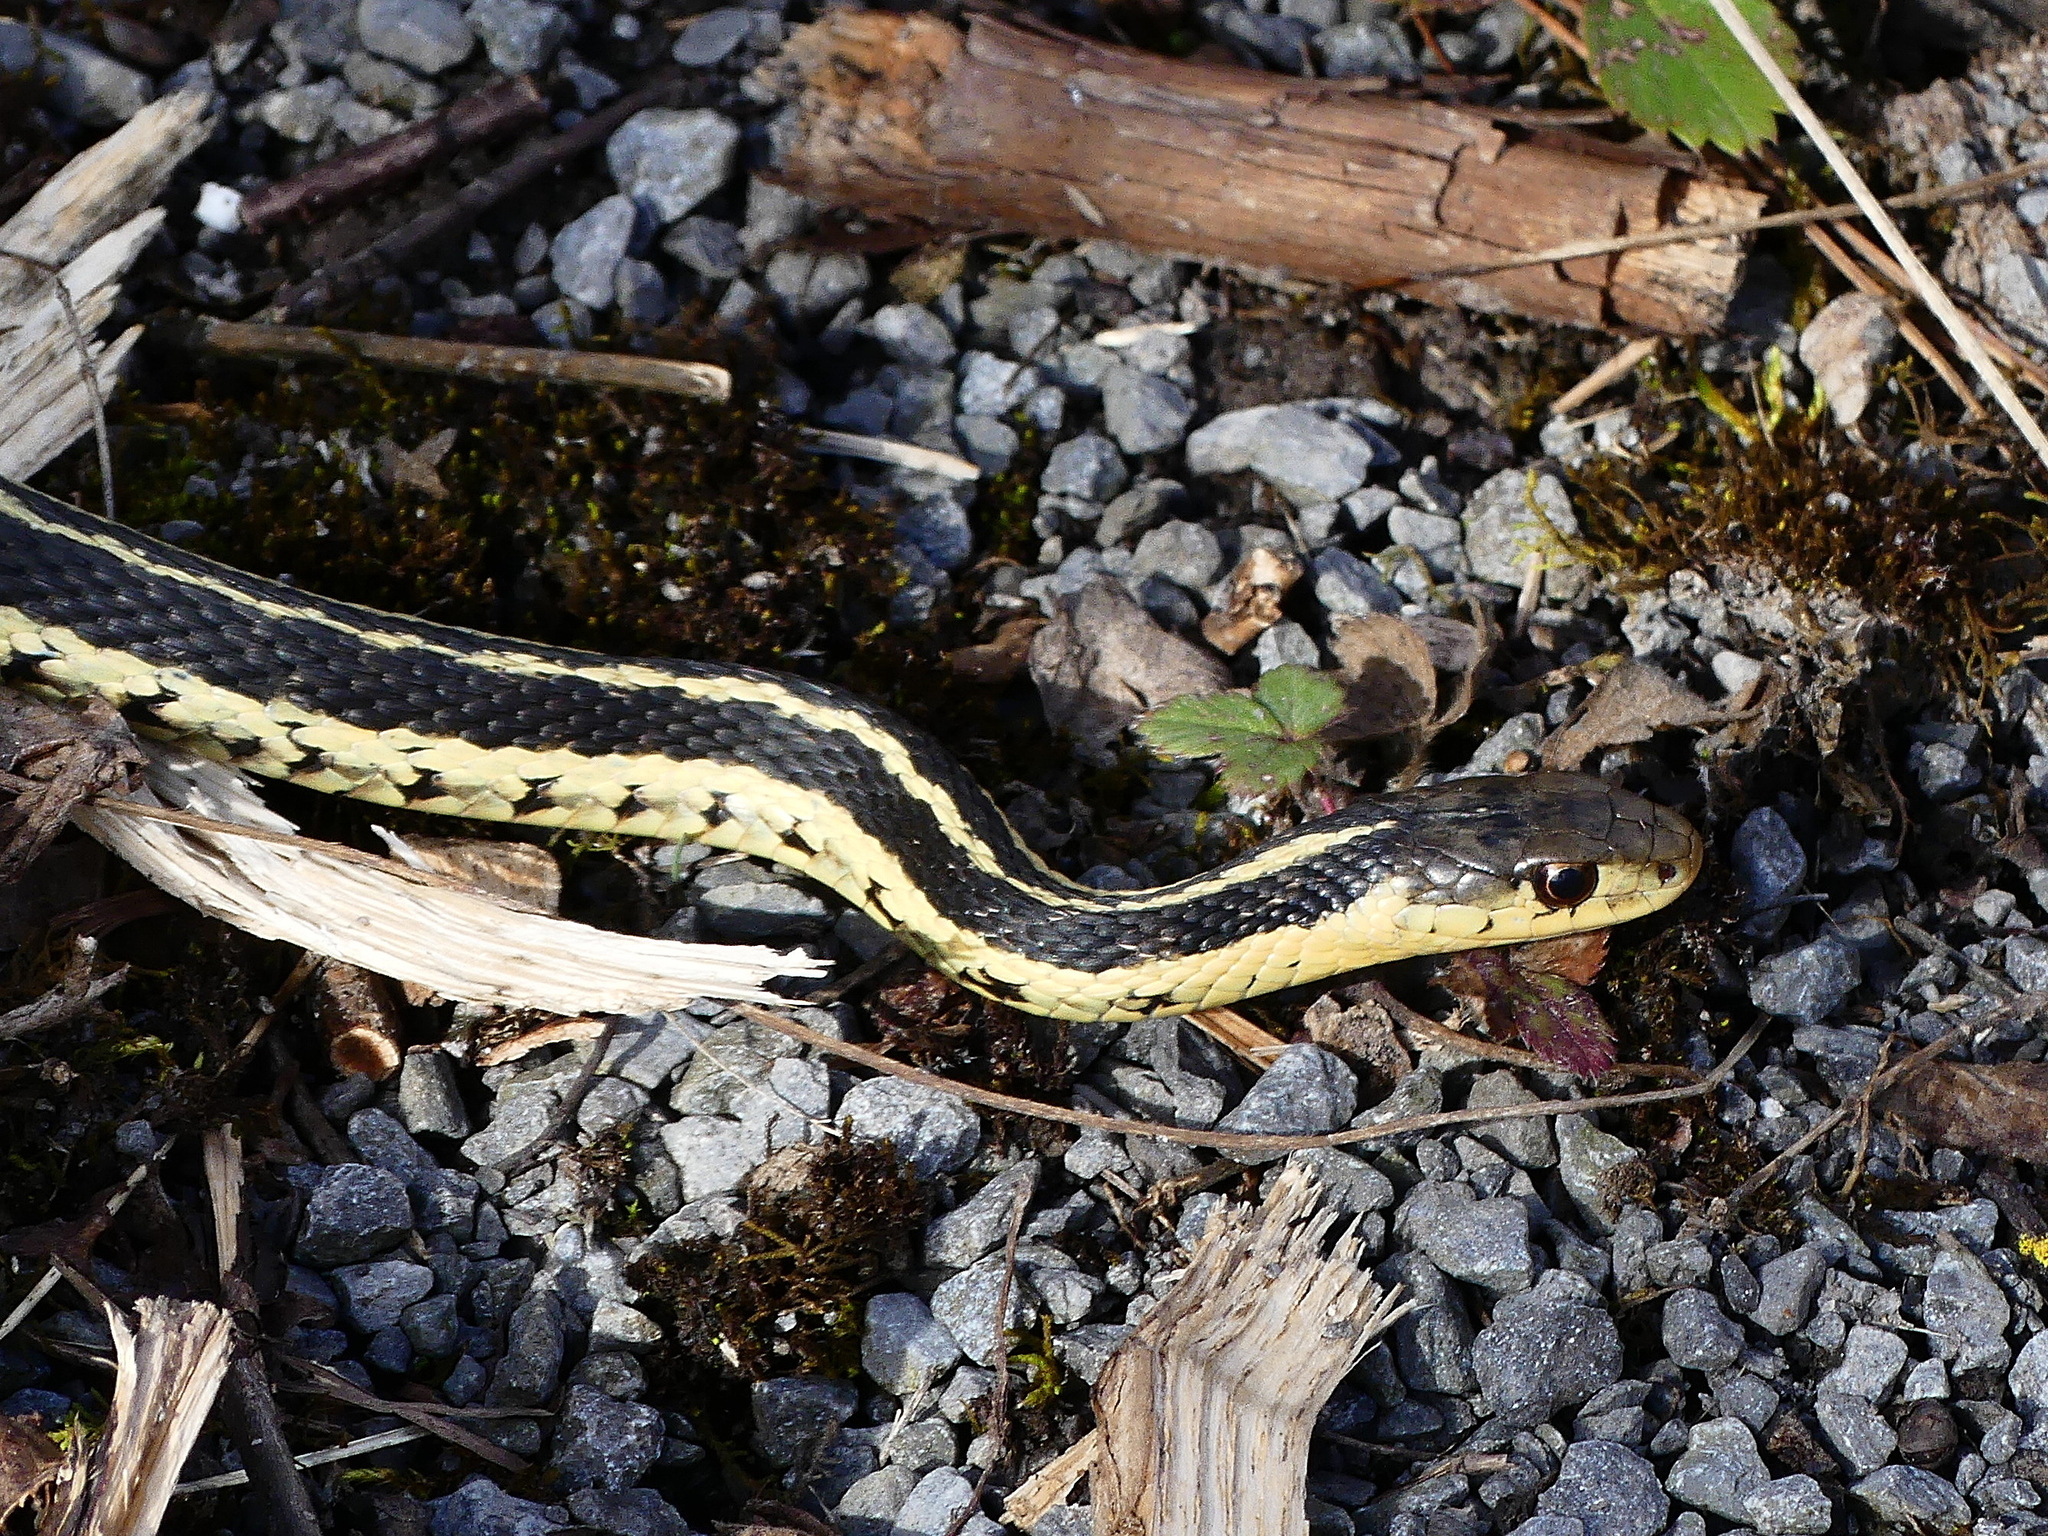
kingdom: Animalia
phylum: Chordata
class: Squamata
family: Colubridae
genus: Thamnophis
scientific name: Thamnophis sirtalis
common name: Common garter snake
